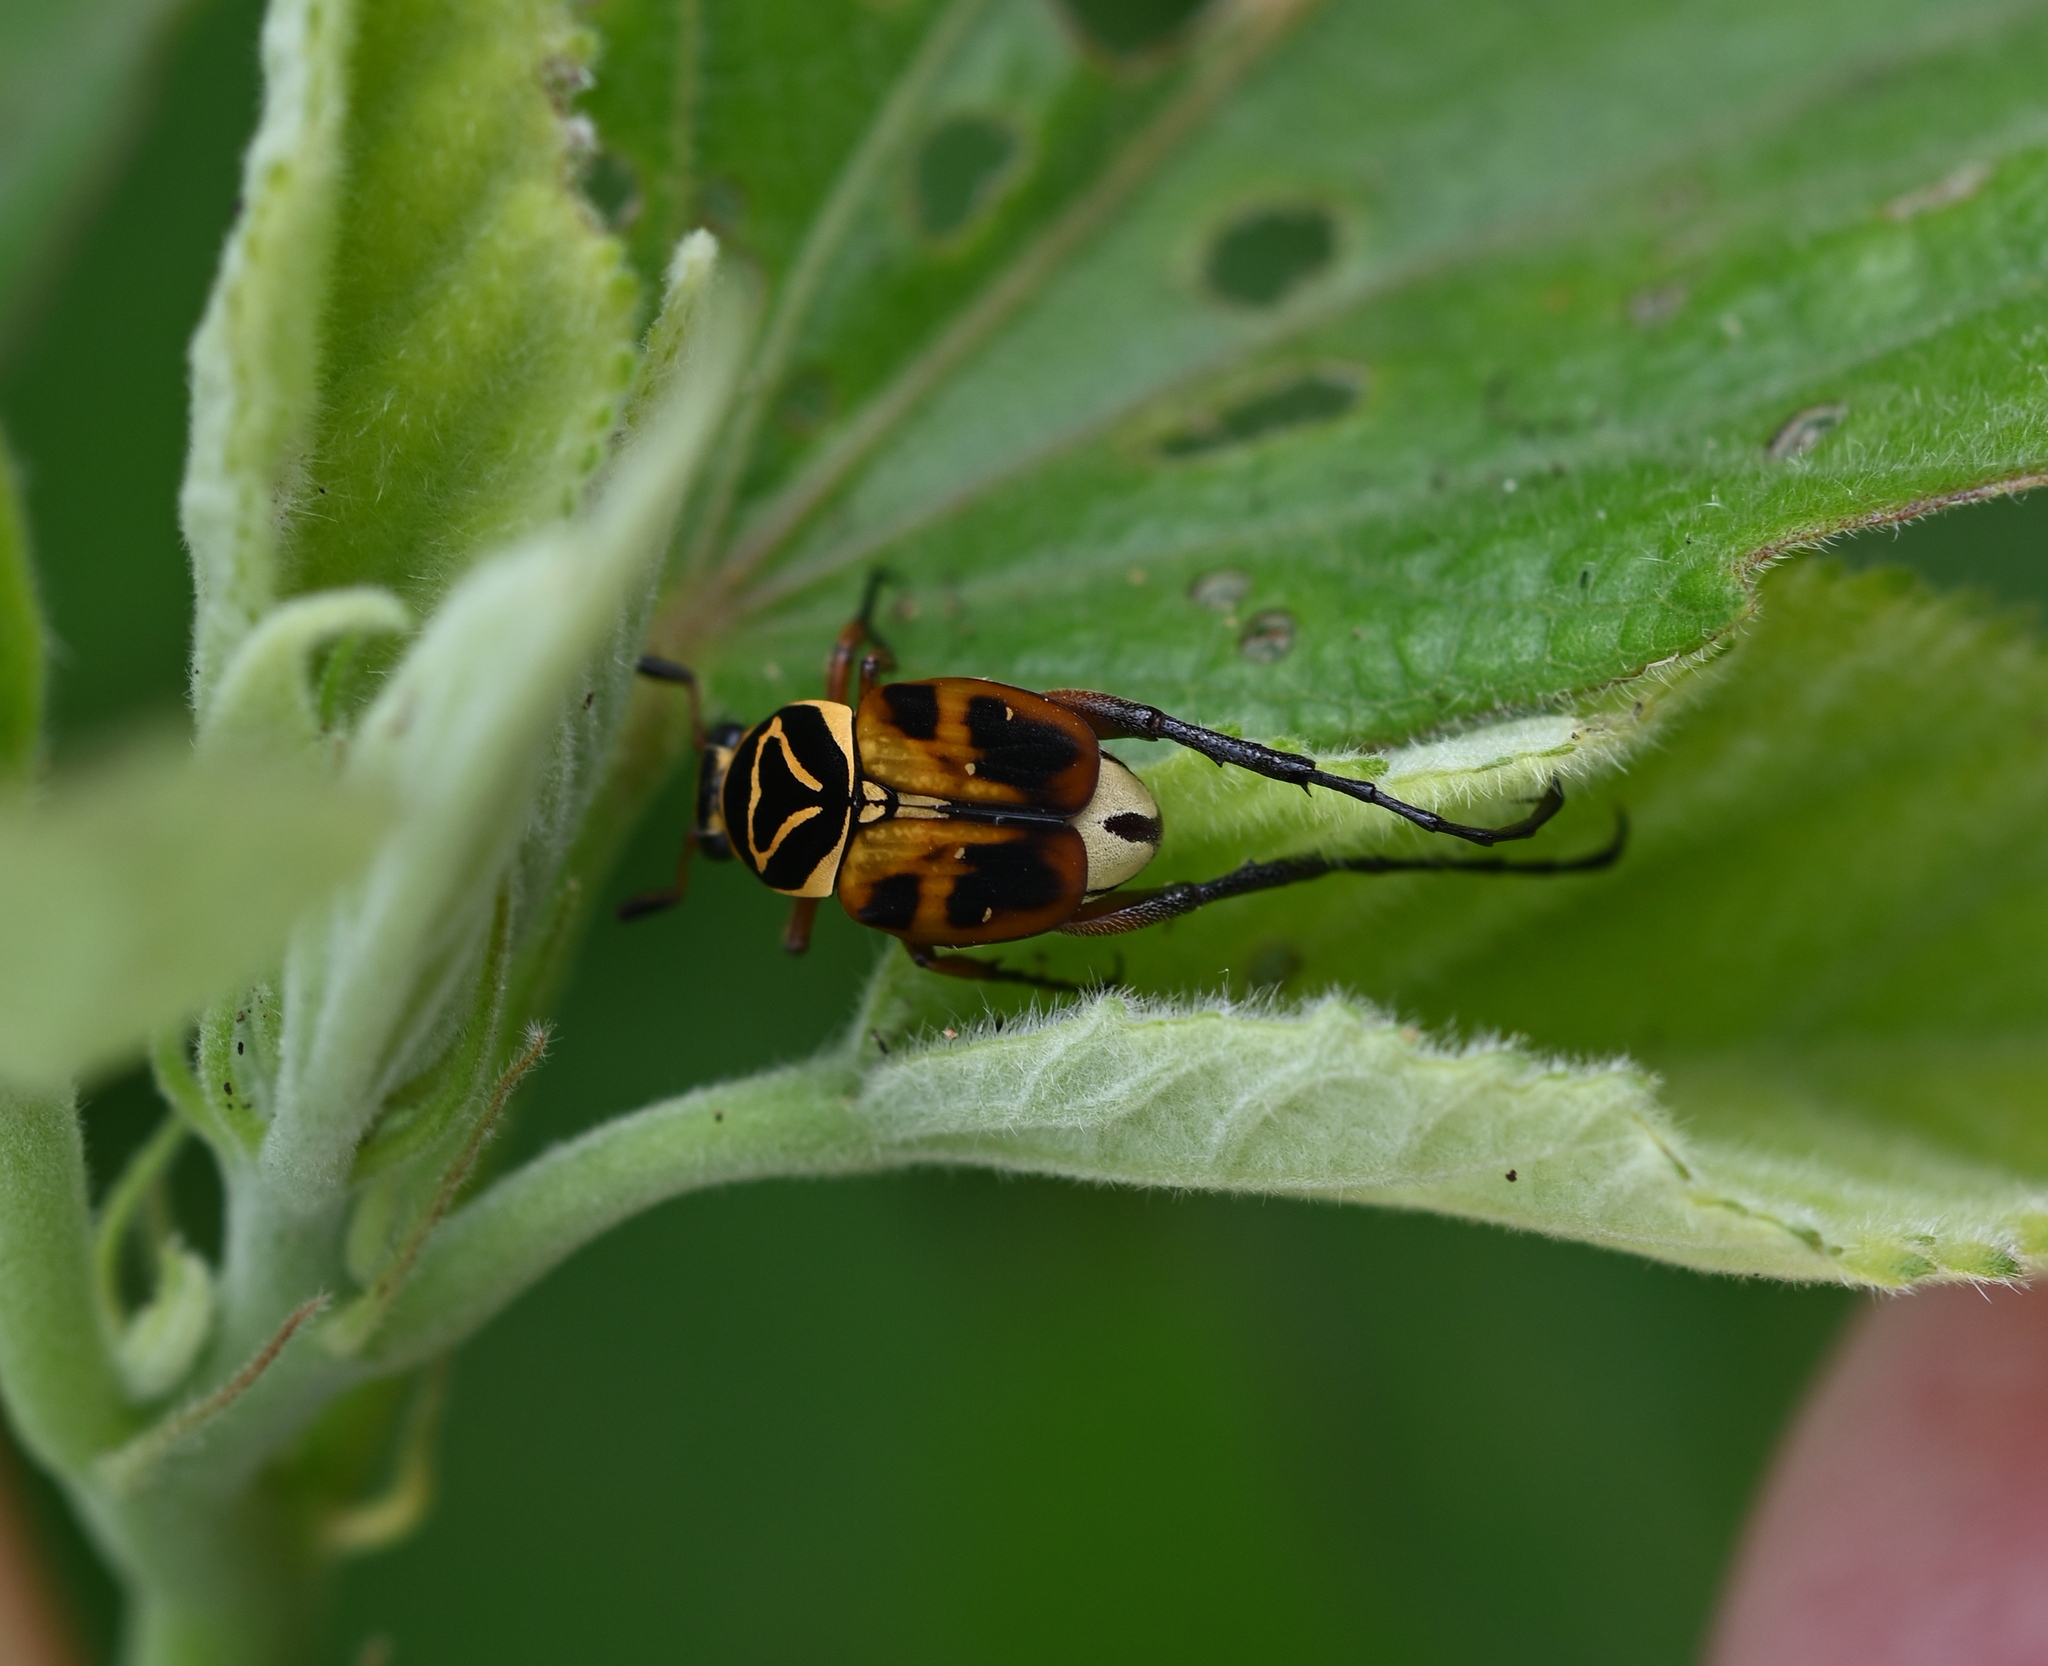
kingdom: Animalia
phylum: Arthropoda
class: Insecta
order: Coleoptera
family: Scarabaeidae
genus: Trigonopeltastes
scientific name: Trigonopeltastes delta
